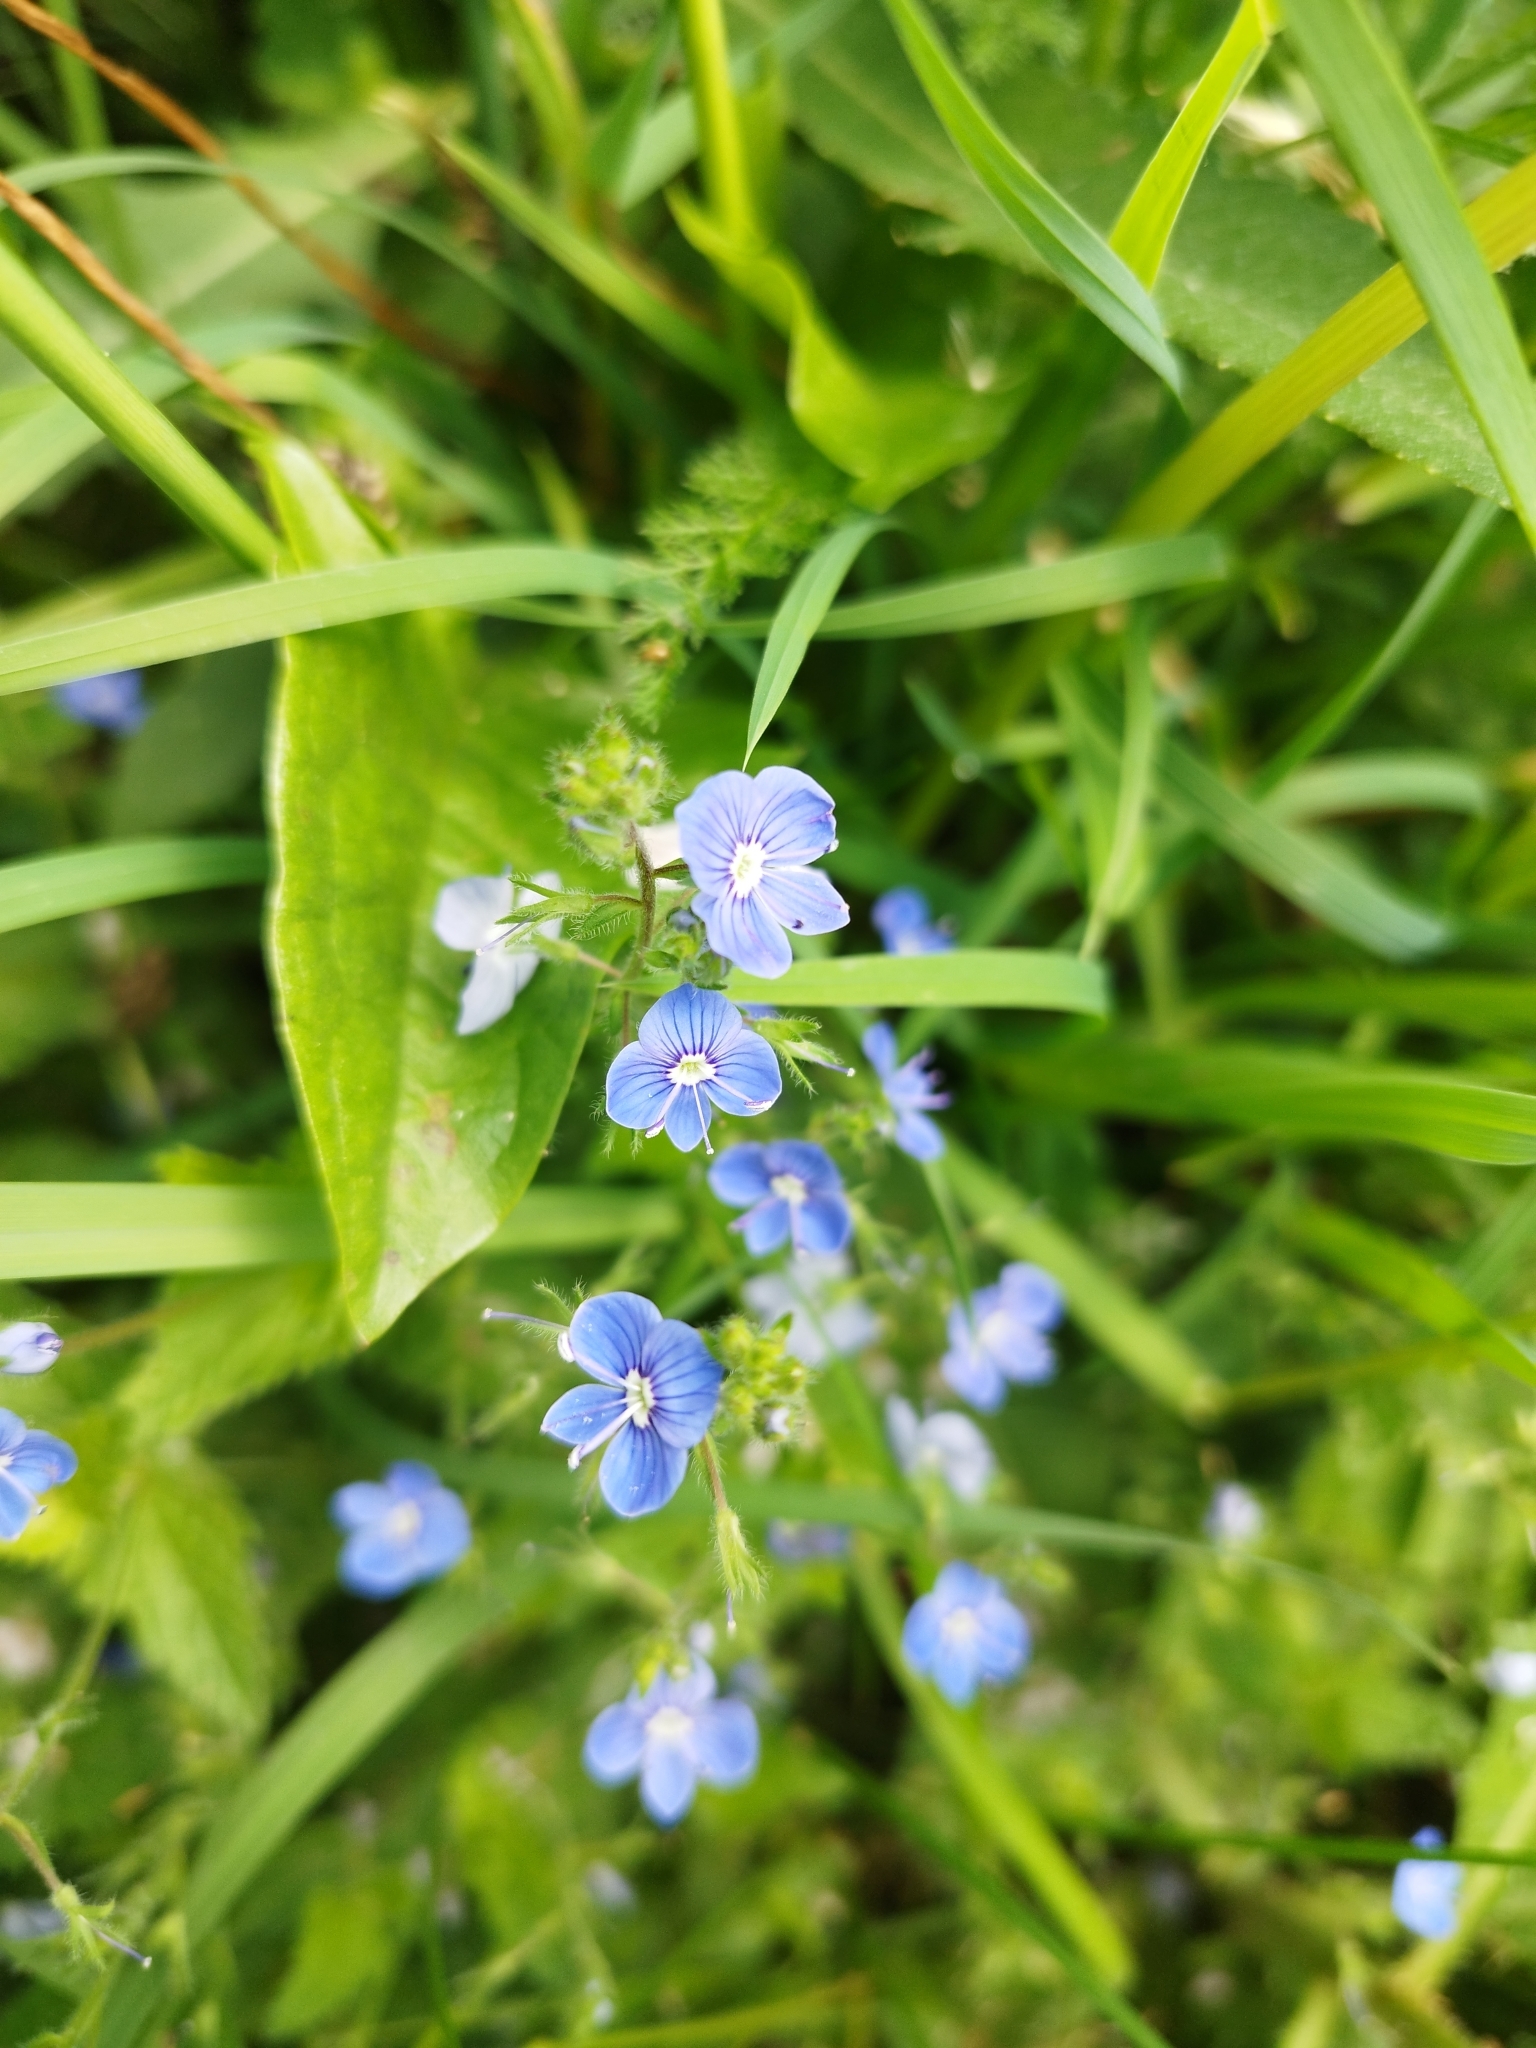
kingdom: Plantae
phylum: Tracheophyta
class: Magnoliopsida
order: Lamiales
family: Plantaginaceae
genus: Veronica
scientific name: Veronica chamaedrys
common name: Germander speedwell
